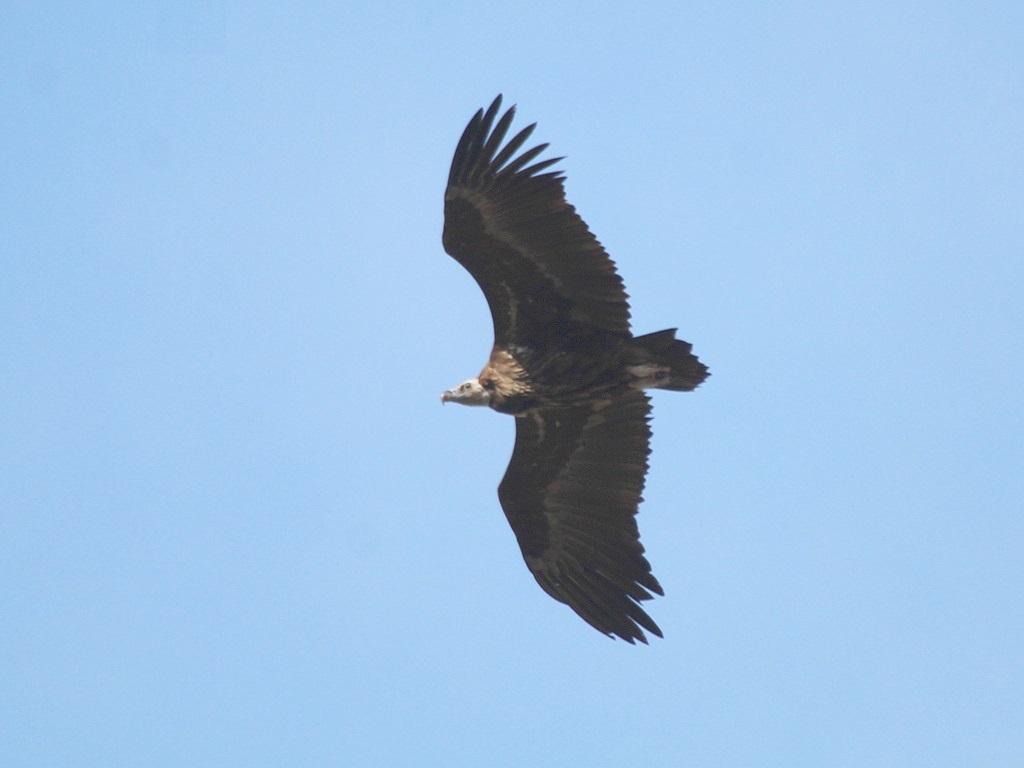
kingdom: Animalia
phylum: Chordata
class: Aves
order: Accipitriformes
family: Accipitridae
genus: Aegypius
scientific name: Aegypius monachus
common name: Cinereous vulture
